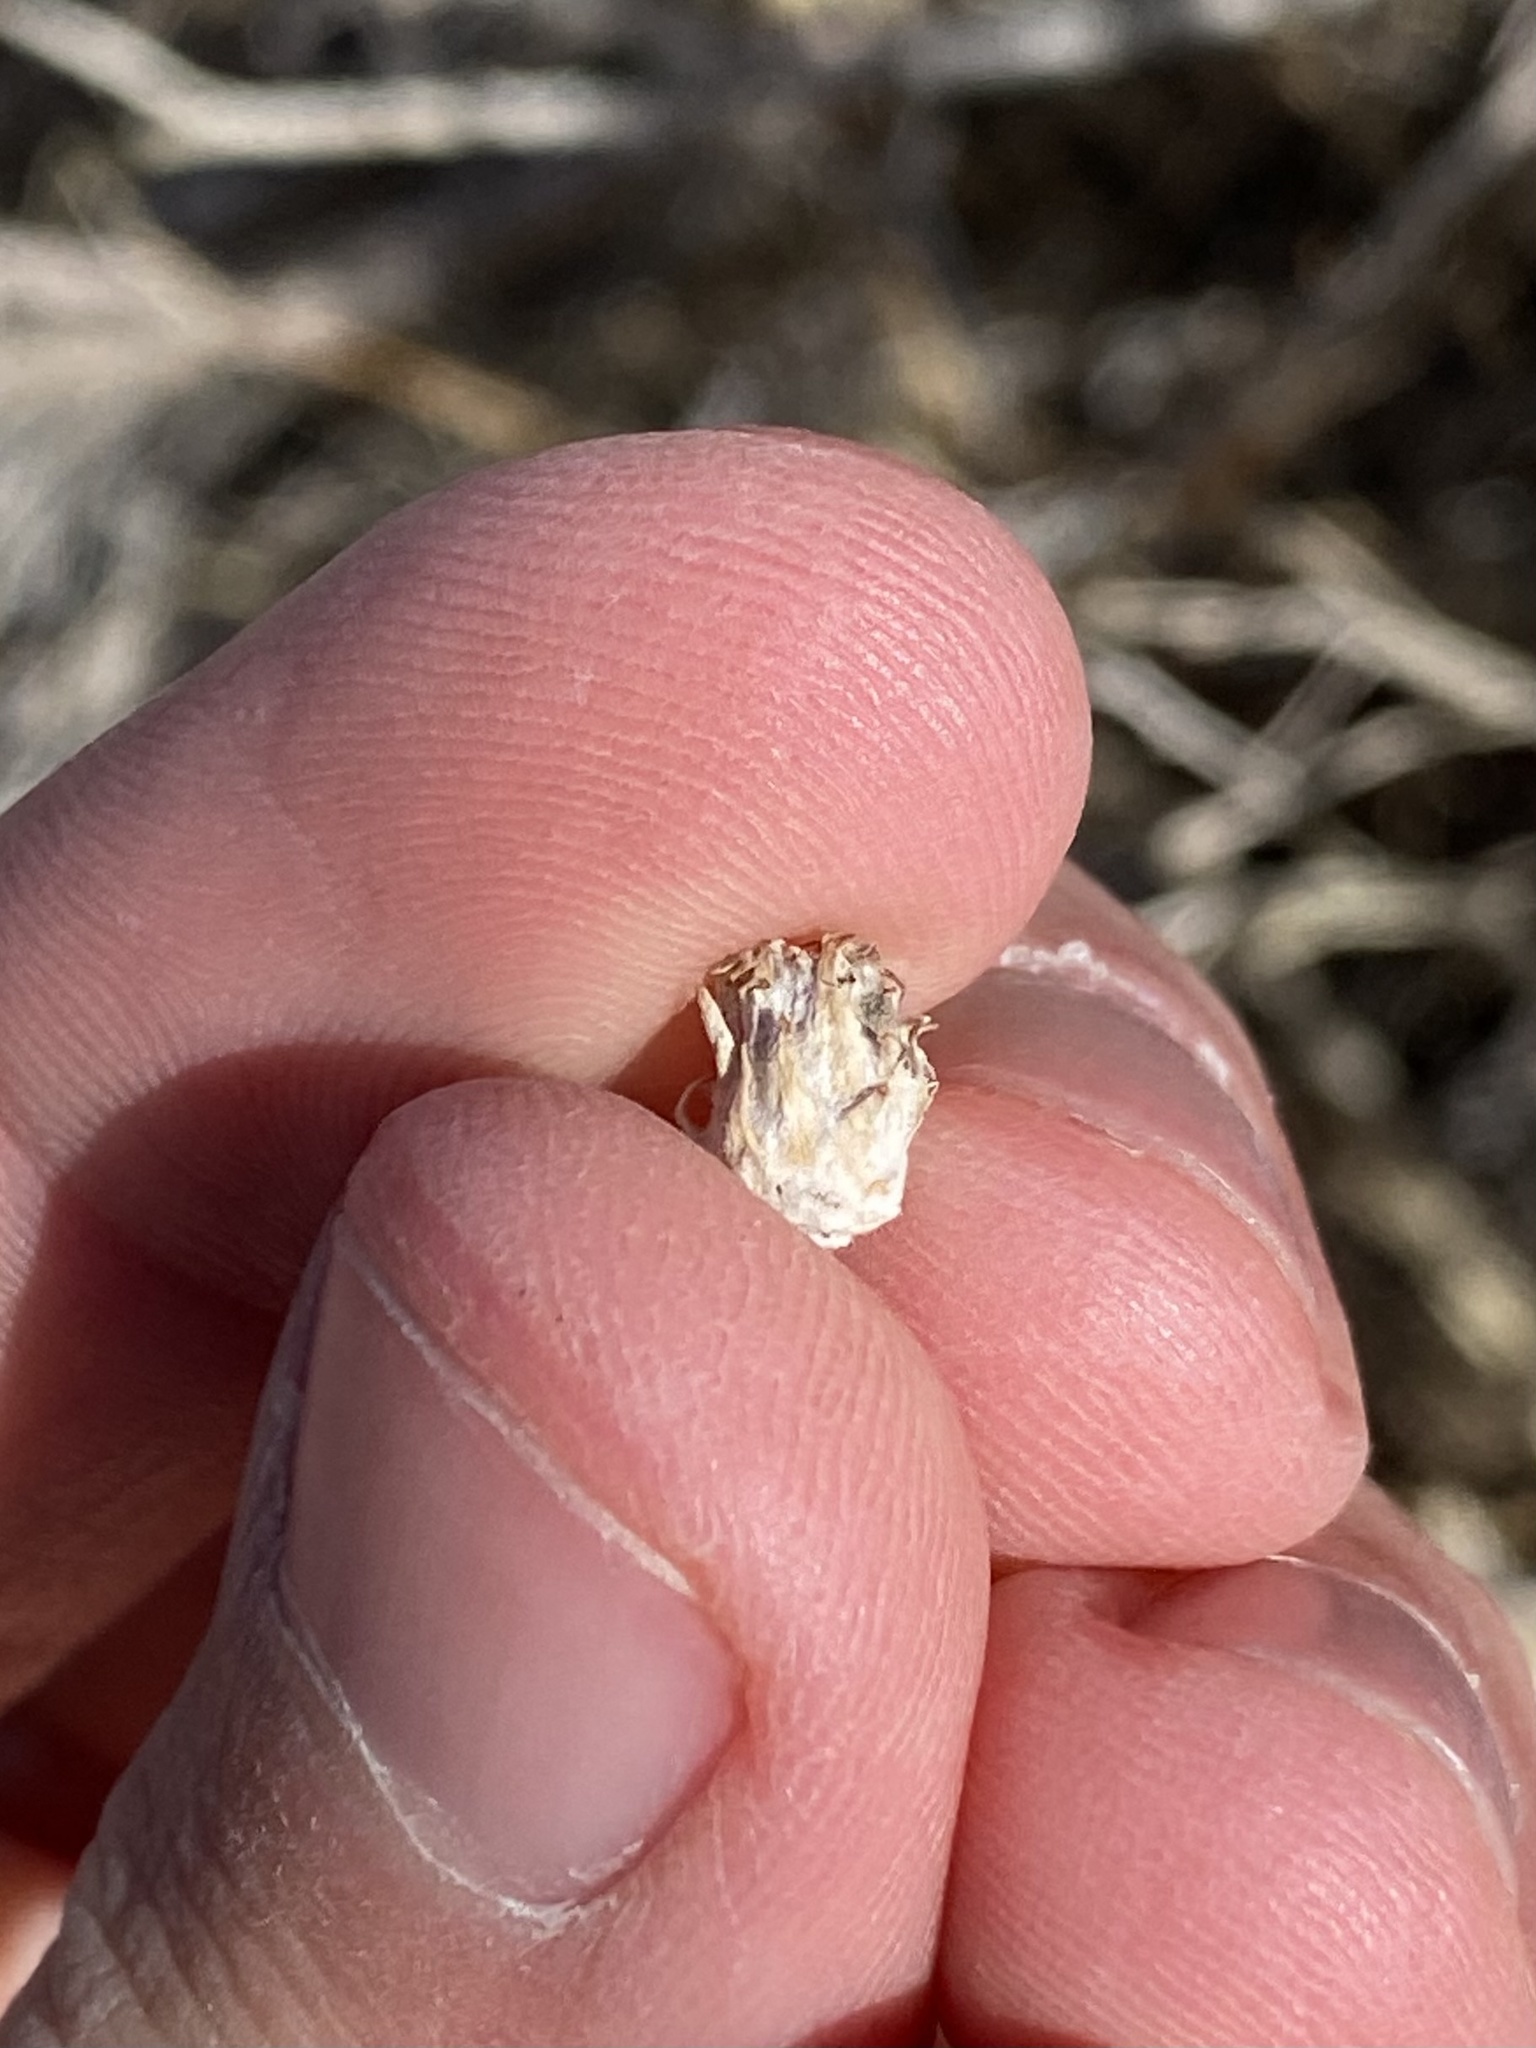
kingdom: Animalia
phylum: Arthropoda
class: Insecta
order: Diptera
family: Cecidomyiidae
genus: Rhopalomyia
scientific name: Rhopalomyia utahensis
